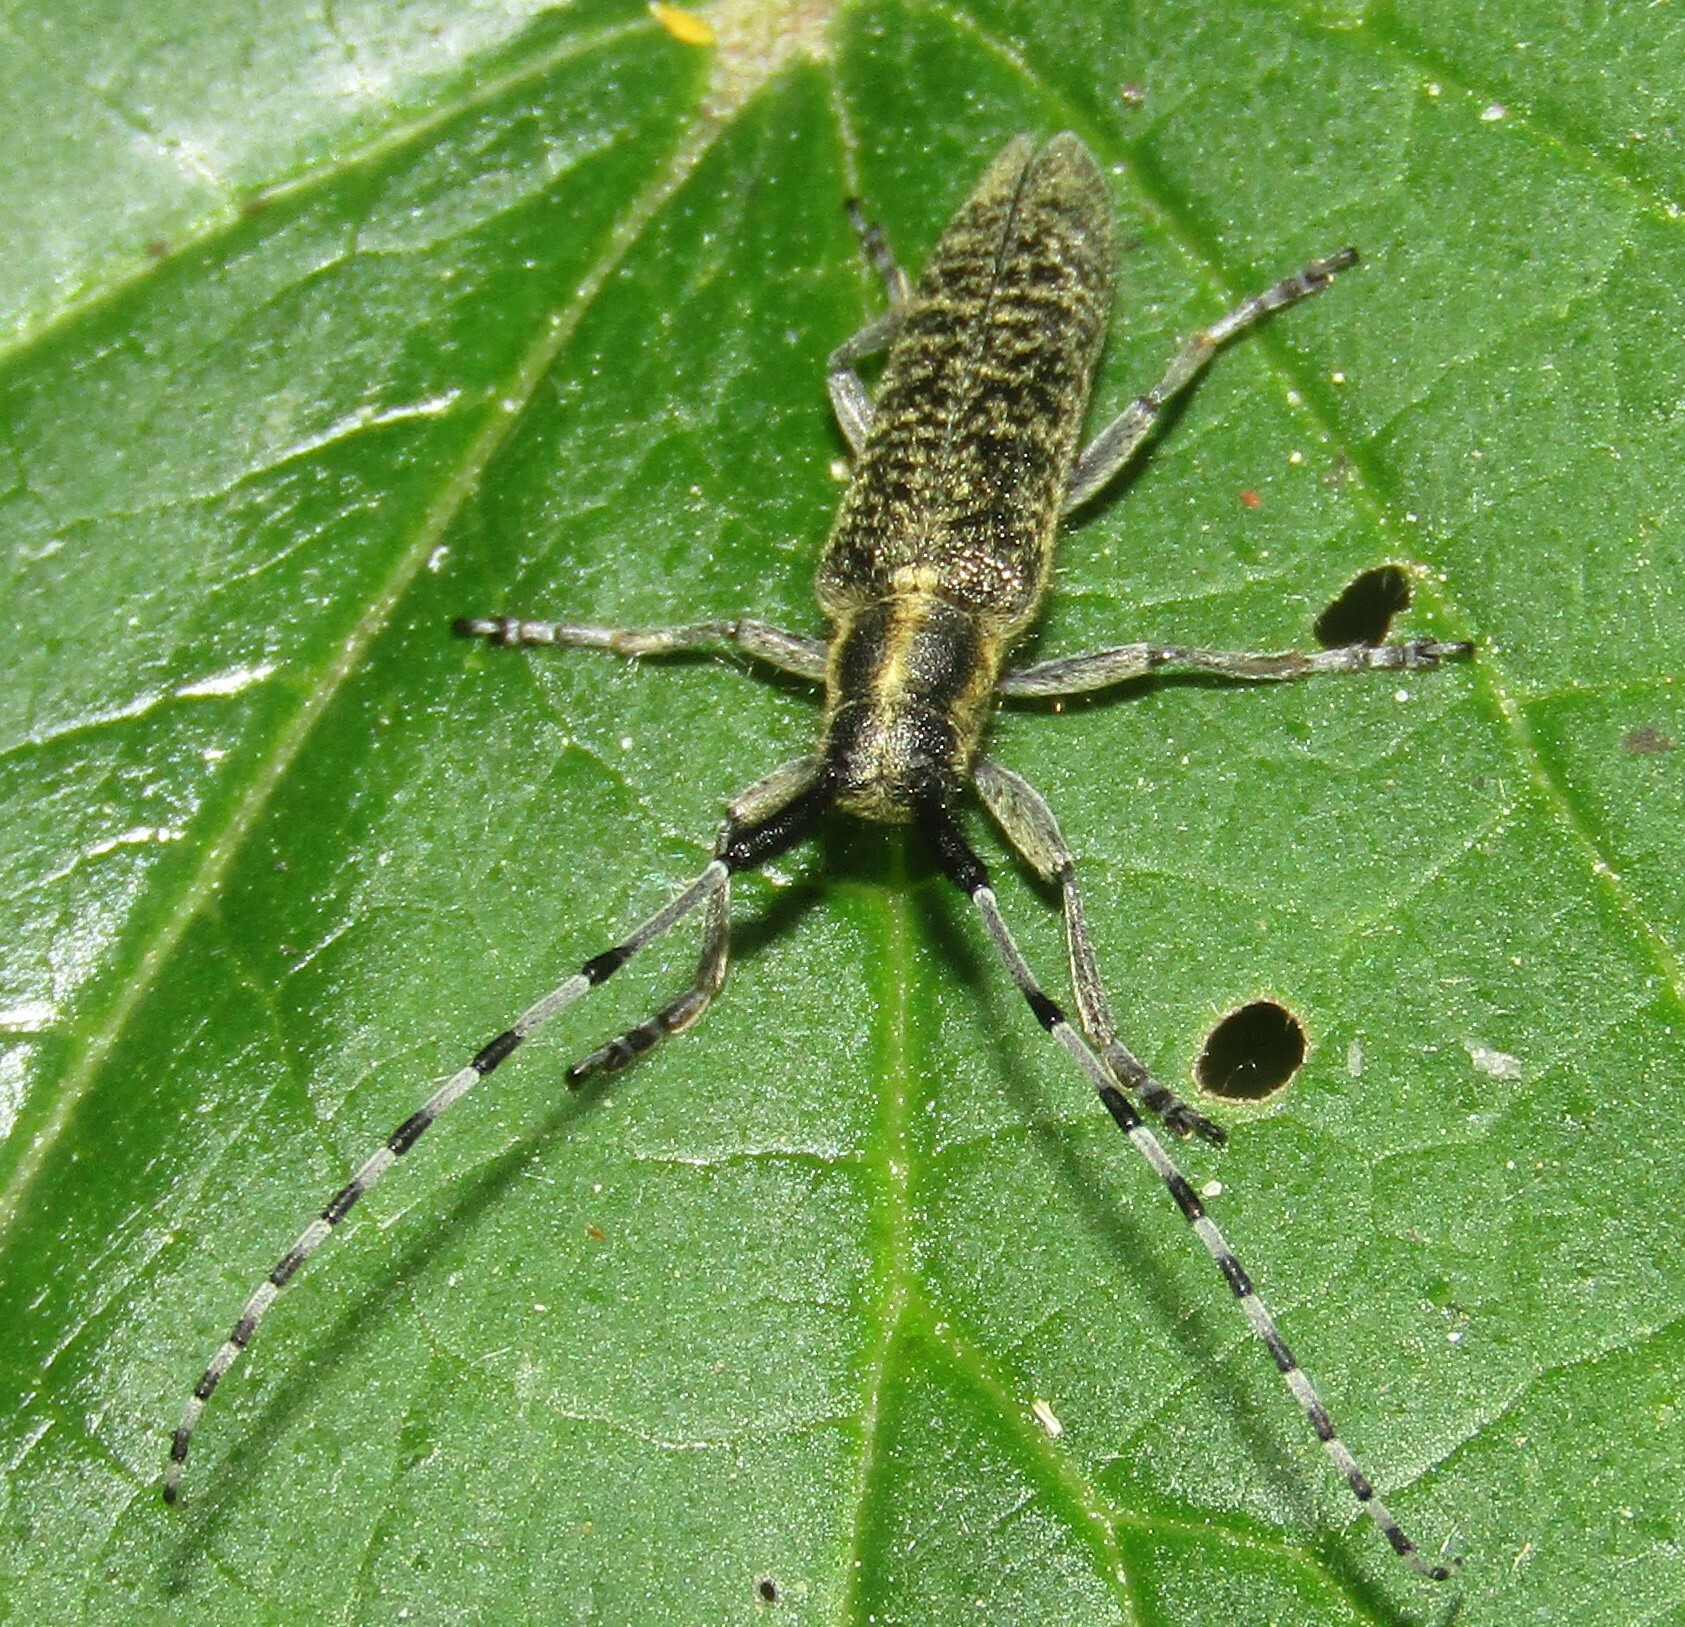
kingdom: Animalia
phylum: Arthropoda
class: Insecta
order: Coleoptera
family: Cerambycidae
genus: Agapanthia
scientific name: Agapanthia villosoviridescens
